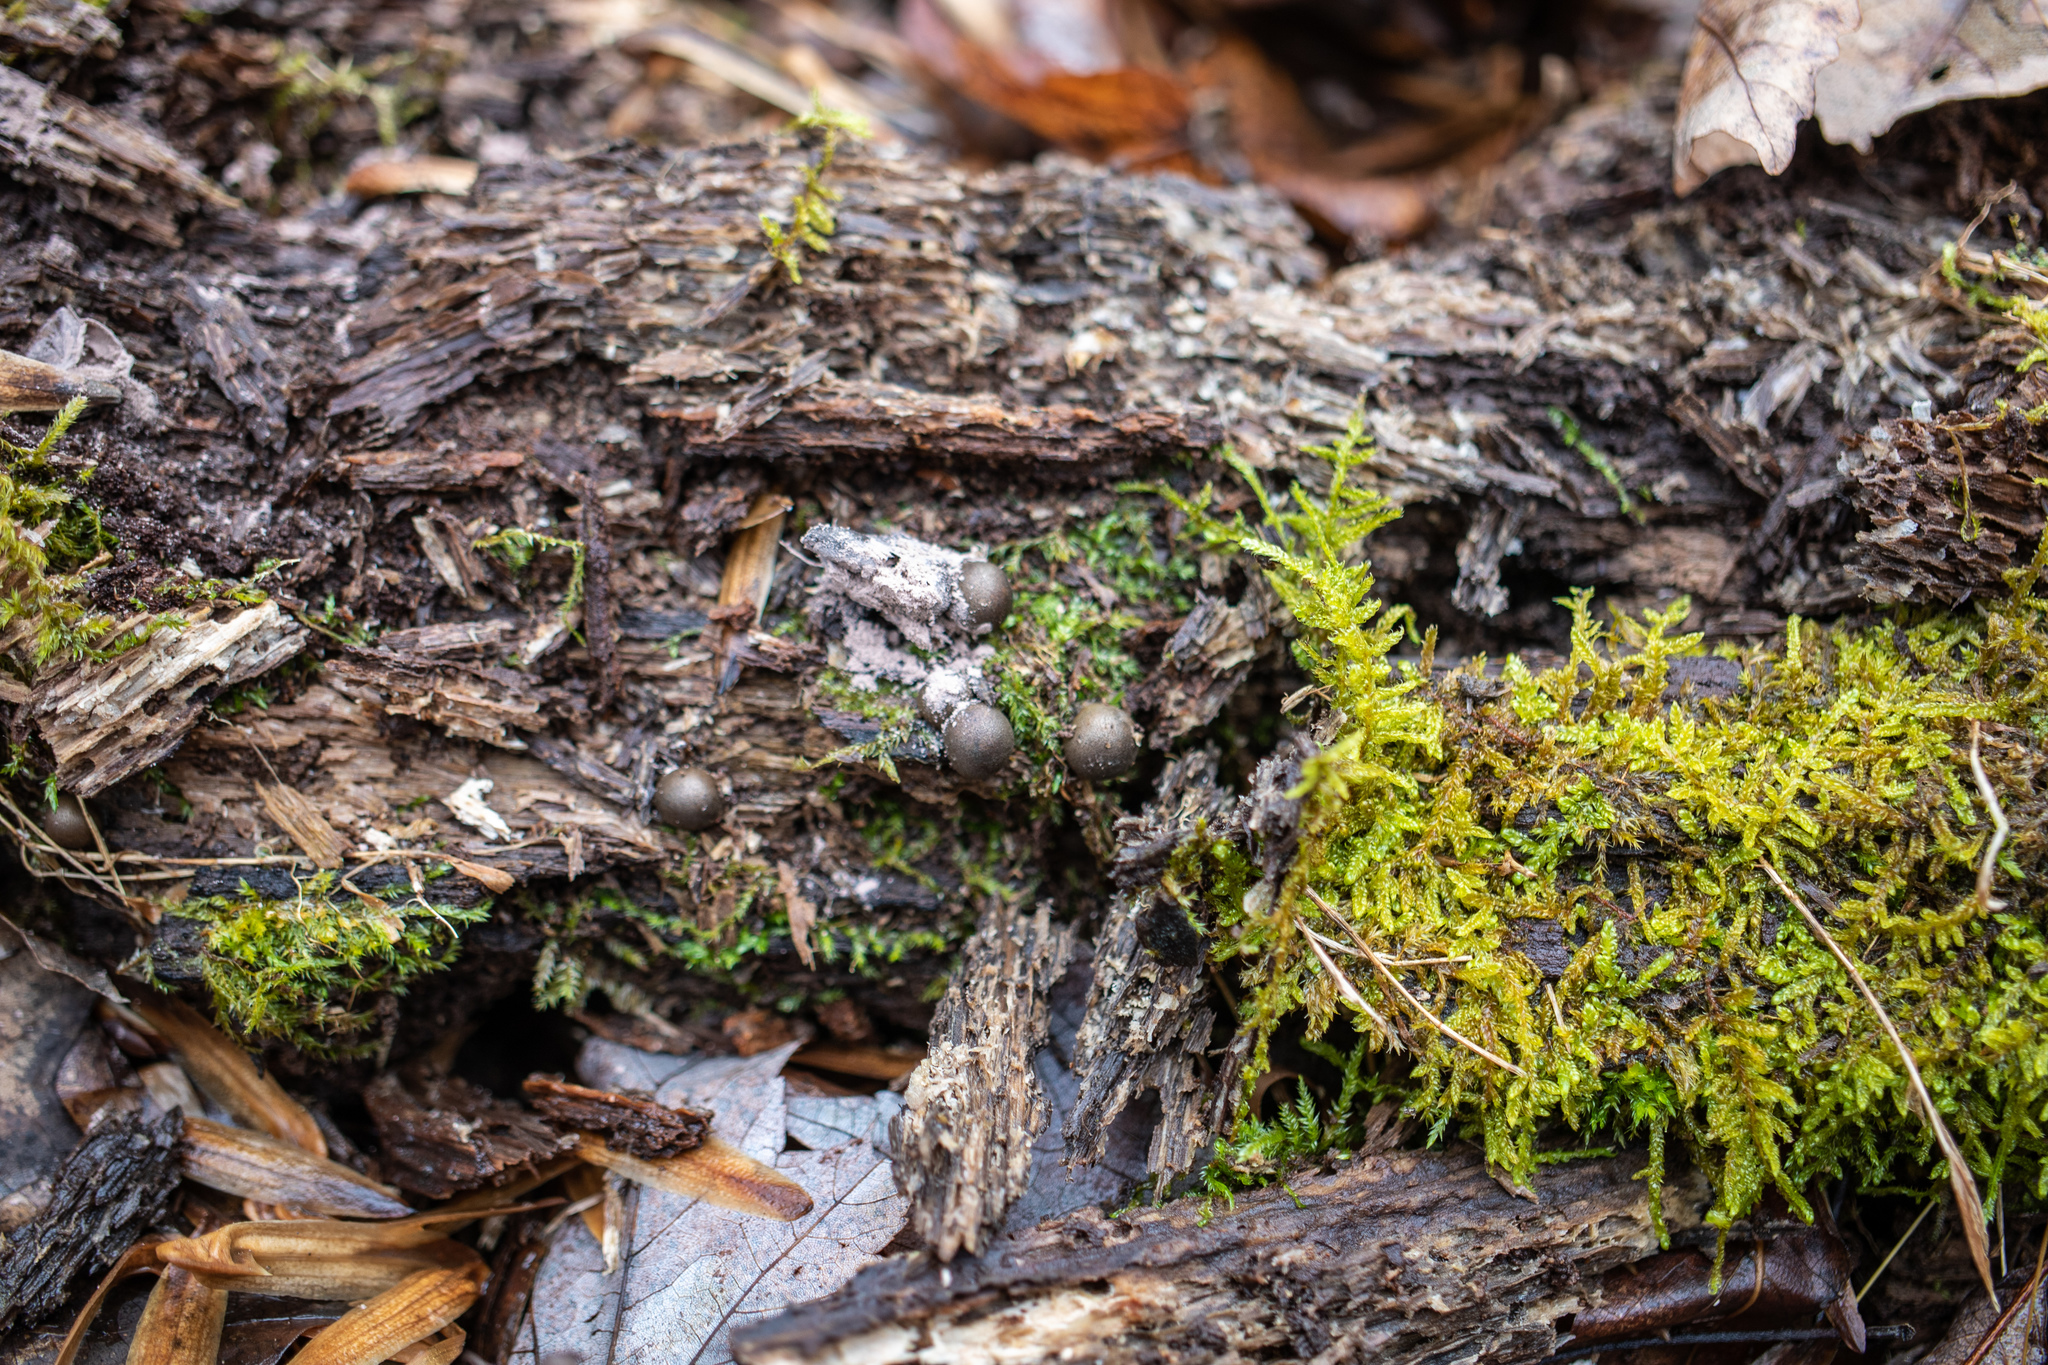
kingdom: Protozoa
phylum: Mycetozoa
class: Myxomycetes
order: Cribrariales
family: Tubiferaceae
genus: Lycogala
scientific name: Lycogala epidendrum
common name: Wolf's milk
